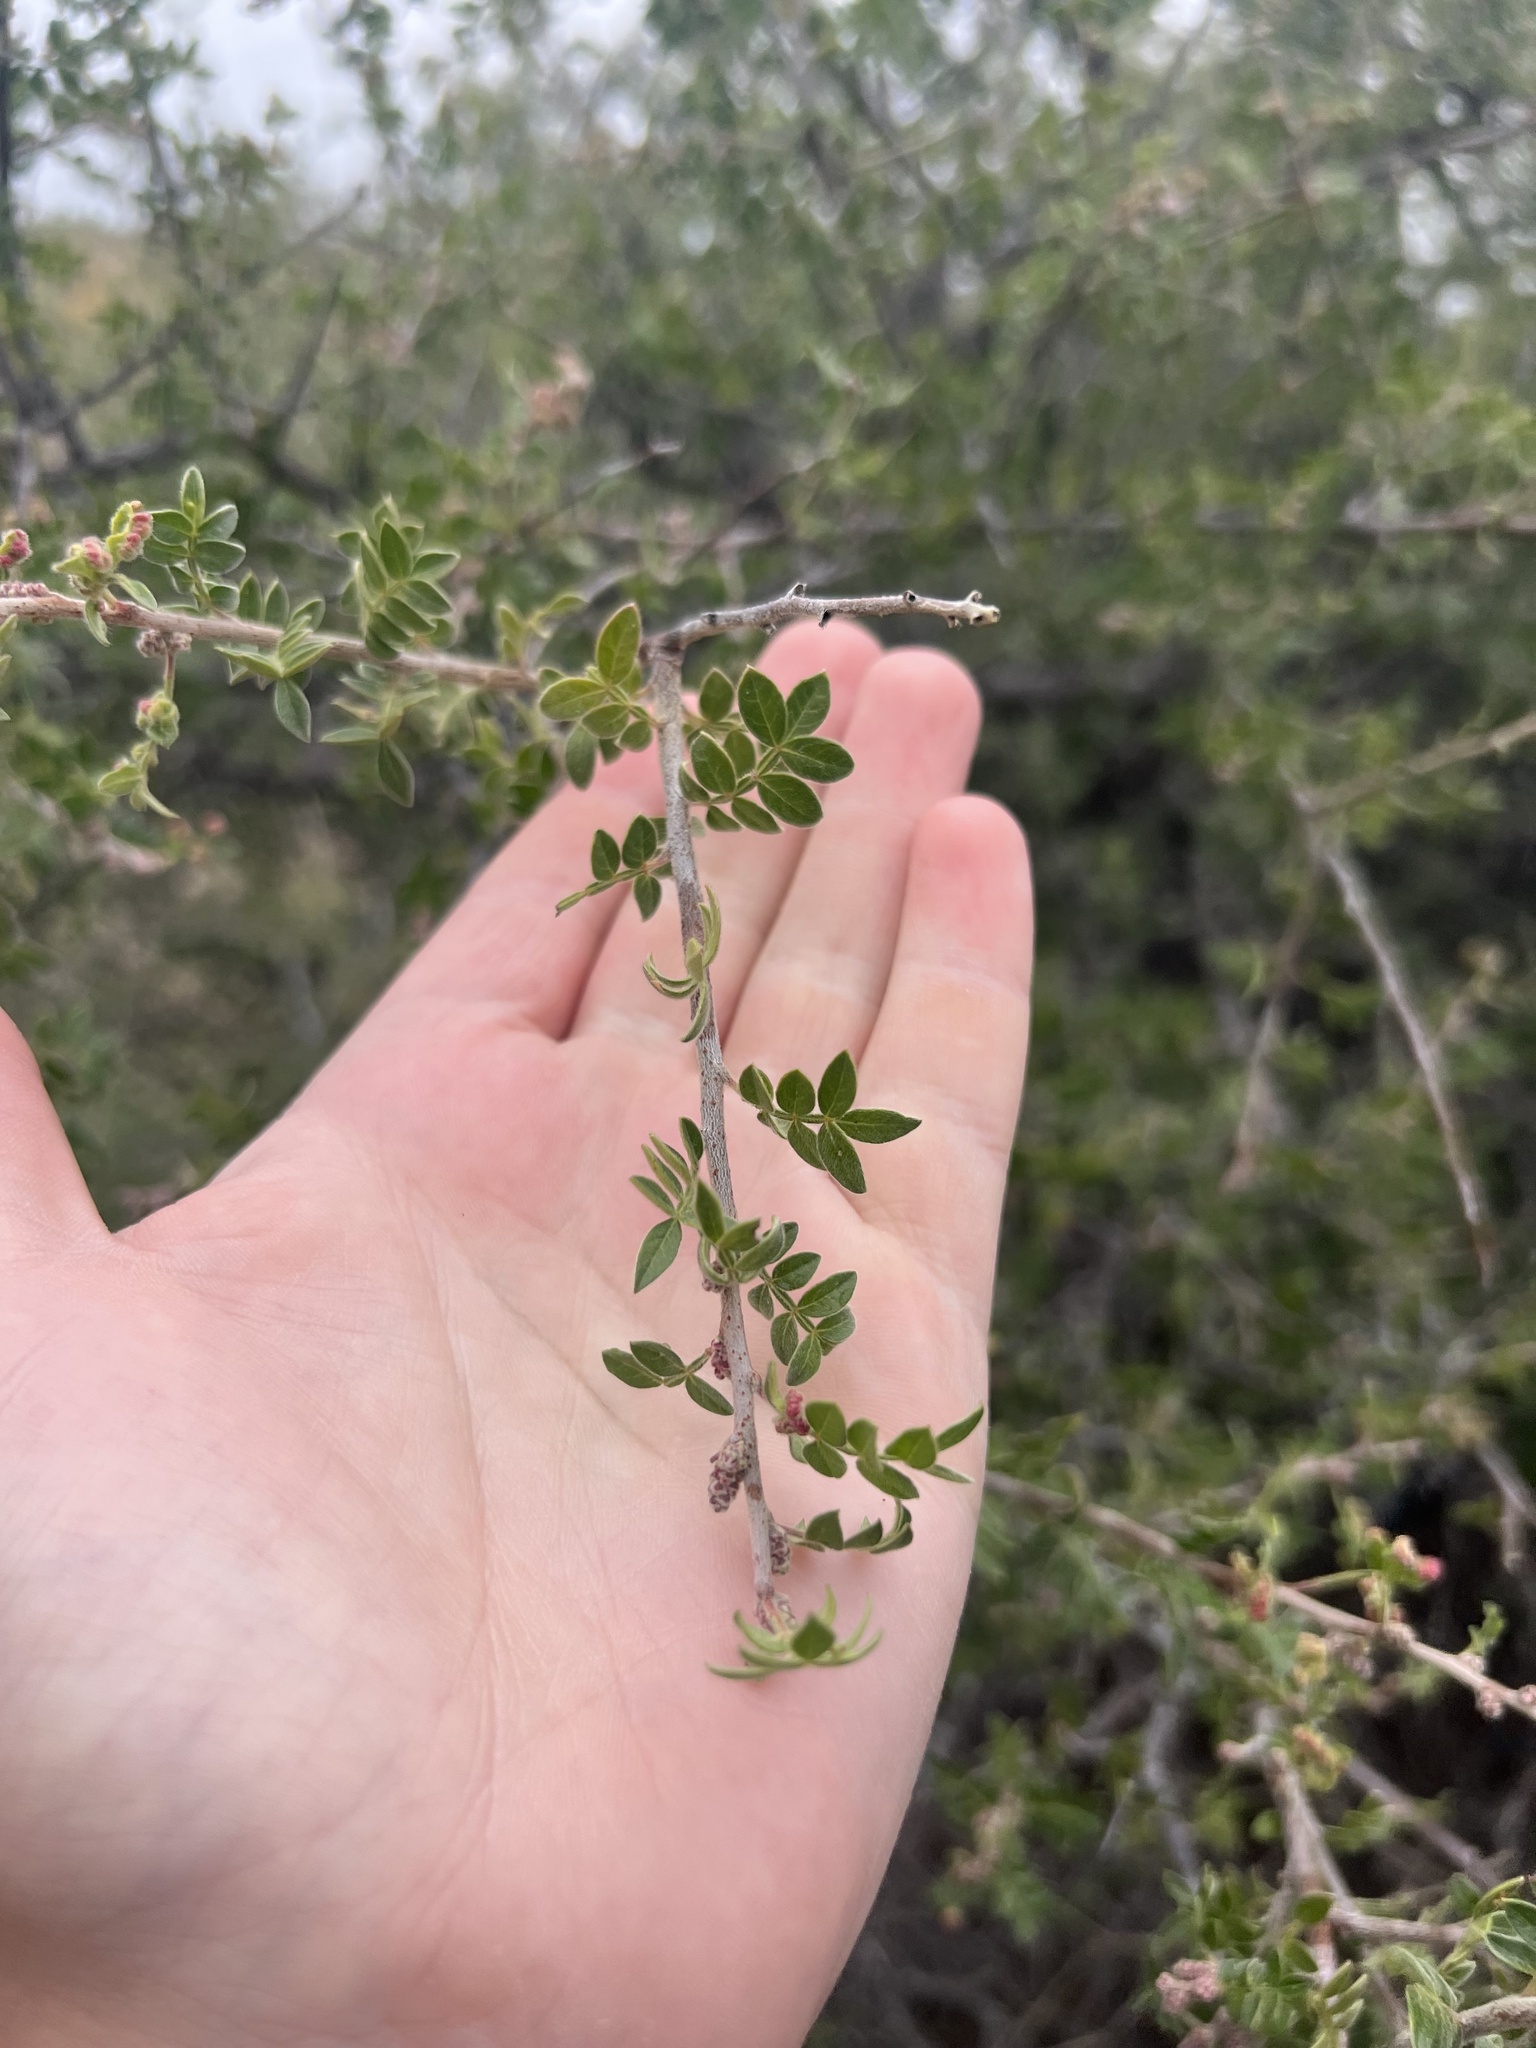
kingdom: Plantae
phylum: Tracheophyta
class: Magnoliopsida
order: Sapindales
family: Anacardiaceae
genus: Rhus
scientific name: Rhus microphylla
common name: Desert sumac
